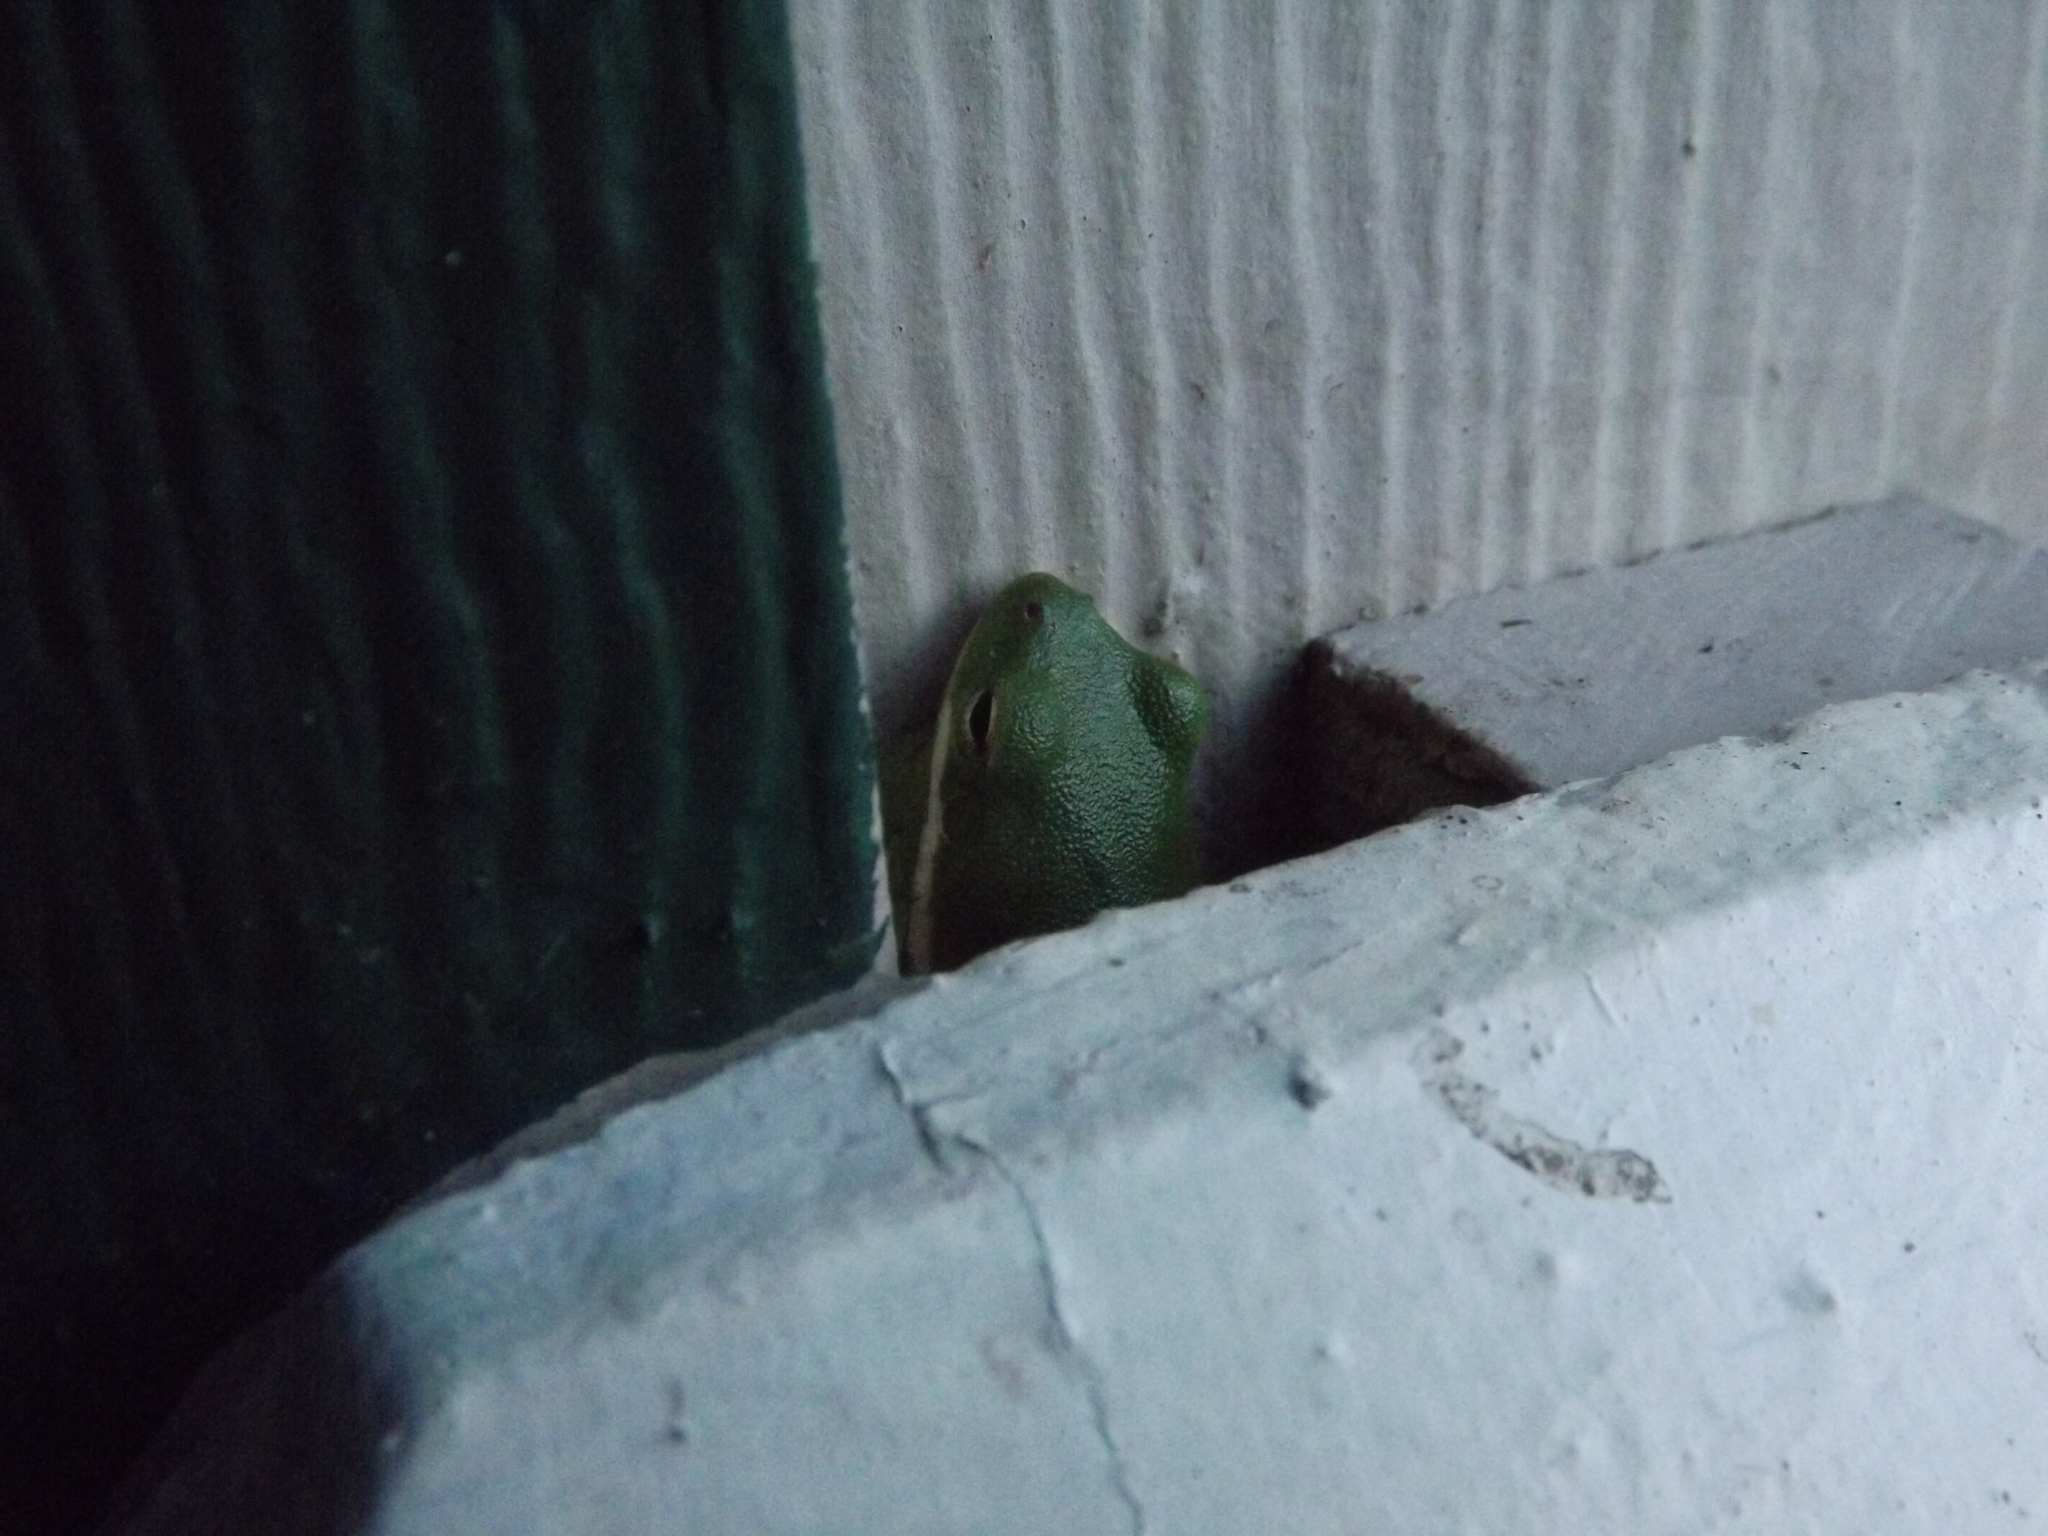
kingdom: Animalia
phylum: Chordata
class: Amphibia
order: Anura
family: Hylidae
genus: Dryophytes
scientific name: Dryophytes cinereus
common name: Green treefrog
